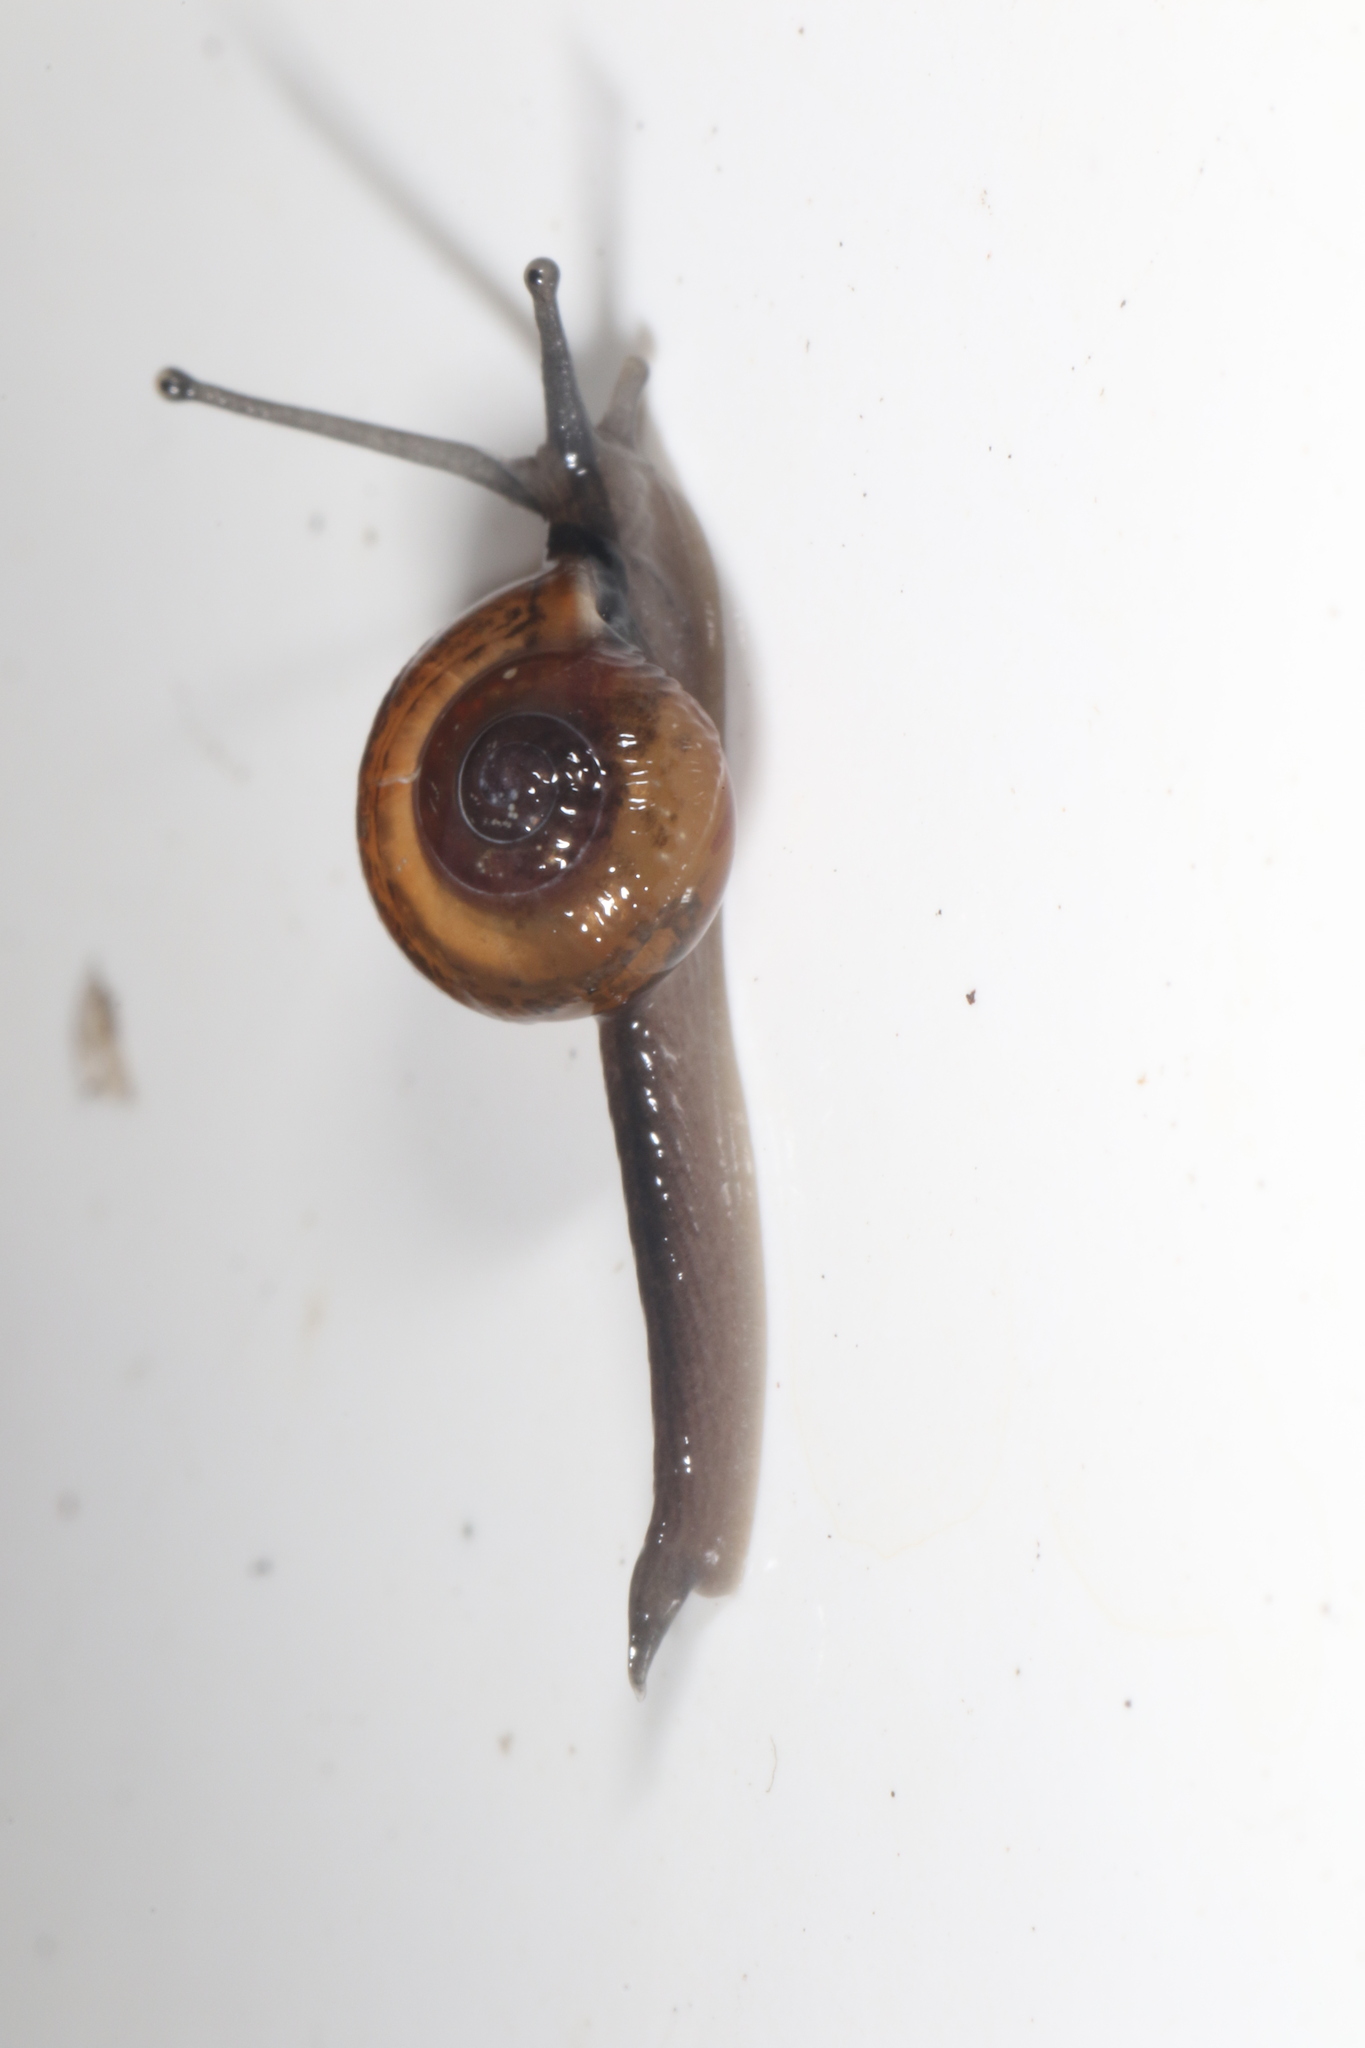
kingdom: Animalia
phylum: Mollusca
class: Gastropoda
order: Stylommatophora
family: Helicarionidae
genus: Ovachlamys
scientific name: Ovachlamys fulgens
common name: Jumping snail
